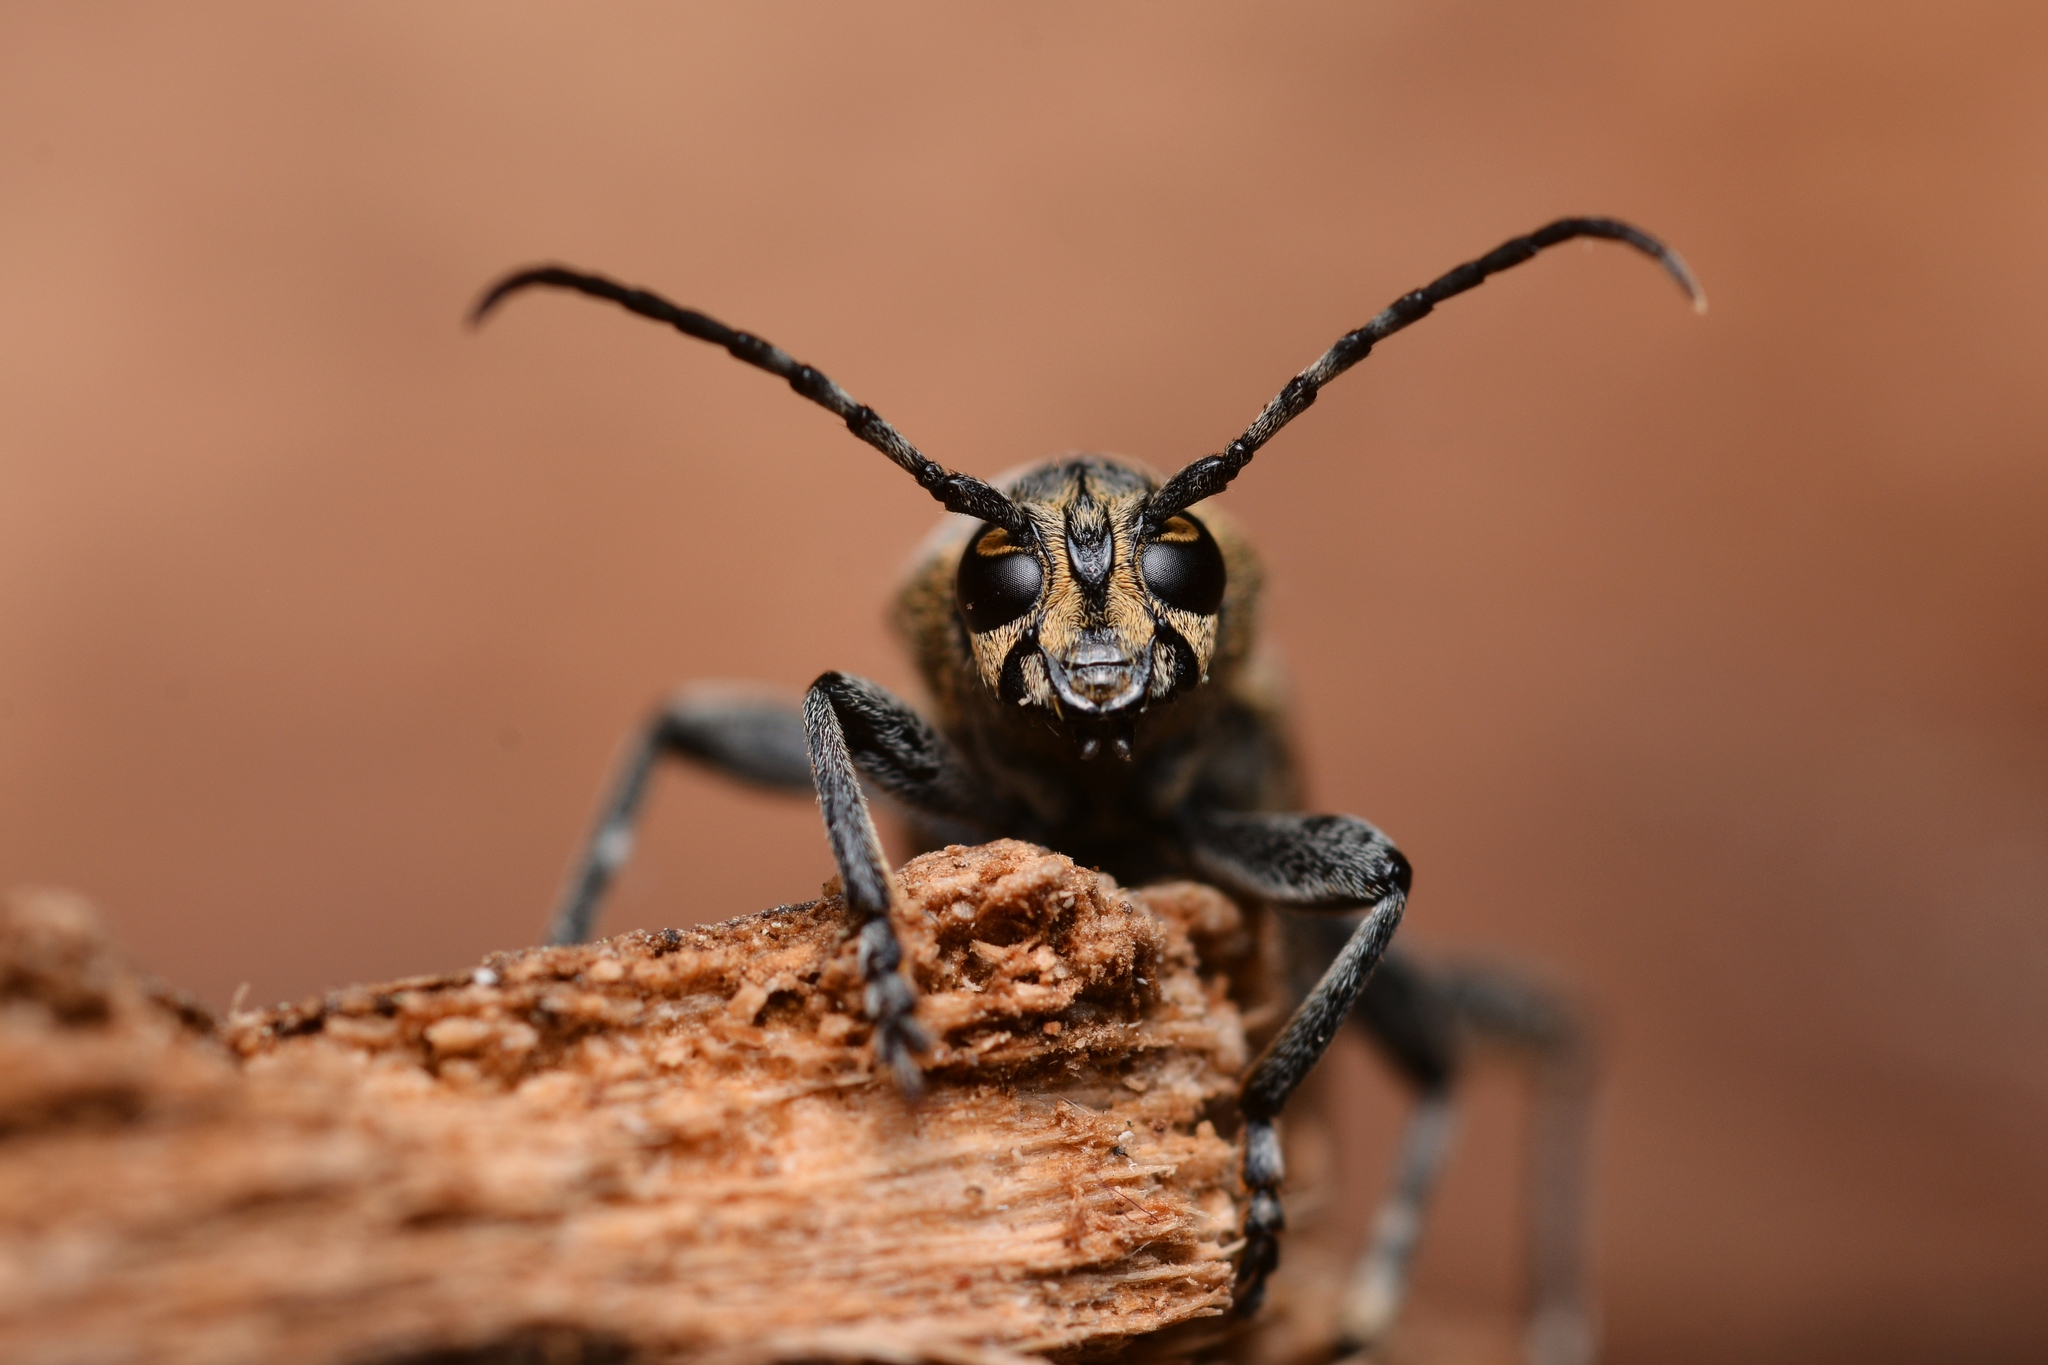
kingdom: Animalia
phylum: Arthropoda
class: Insecta
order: Coleoptera
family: Cerambycidae
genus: Xylotrechus
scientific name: Xylotrechus rusticus
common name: Grey tiger long-horned beetle
